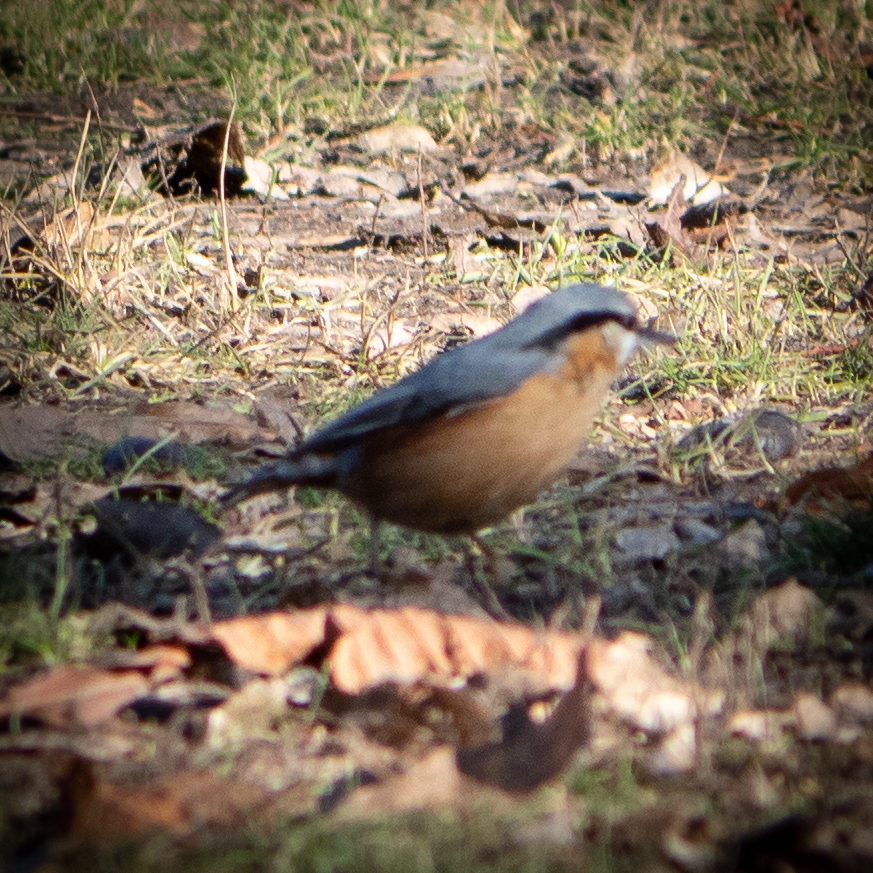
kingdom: Animalia
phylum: Chordata
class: Aves
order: Passeriformes
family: Sittidae
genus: Sitta
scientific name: Sitta europaea
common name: Eurasian nuthatch
